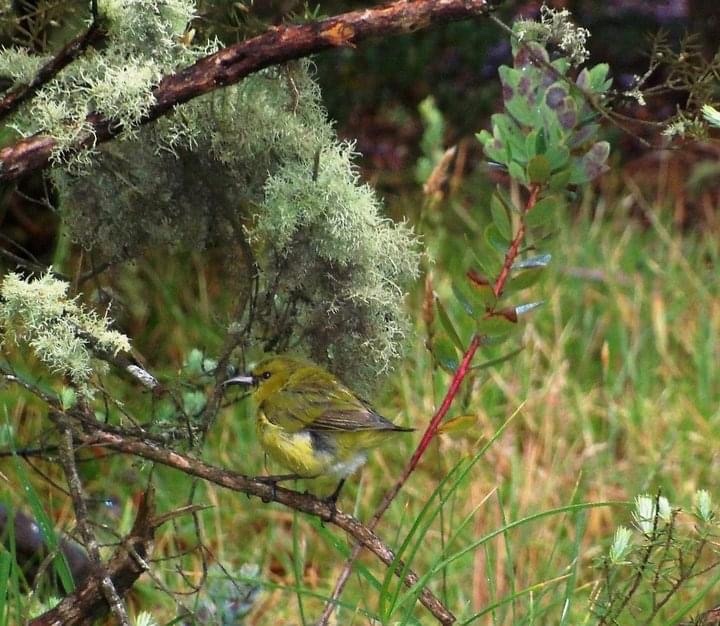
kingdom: Animalia
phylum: Chordata
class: Aves
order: Passeriformes
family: Fringillidae
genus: Chlorodrepanis
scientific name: Chlorodrepanis virens
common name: Hawaii amakihi
